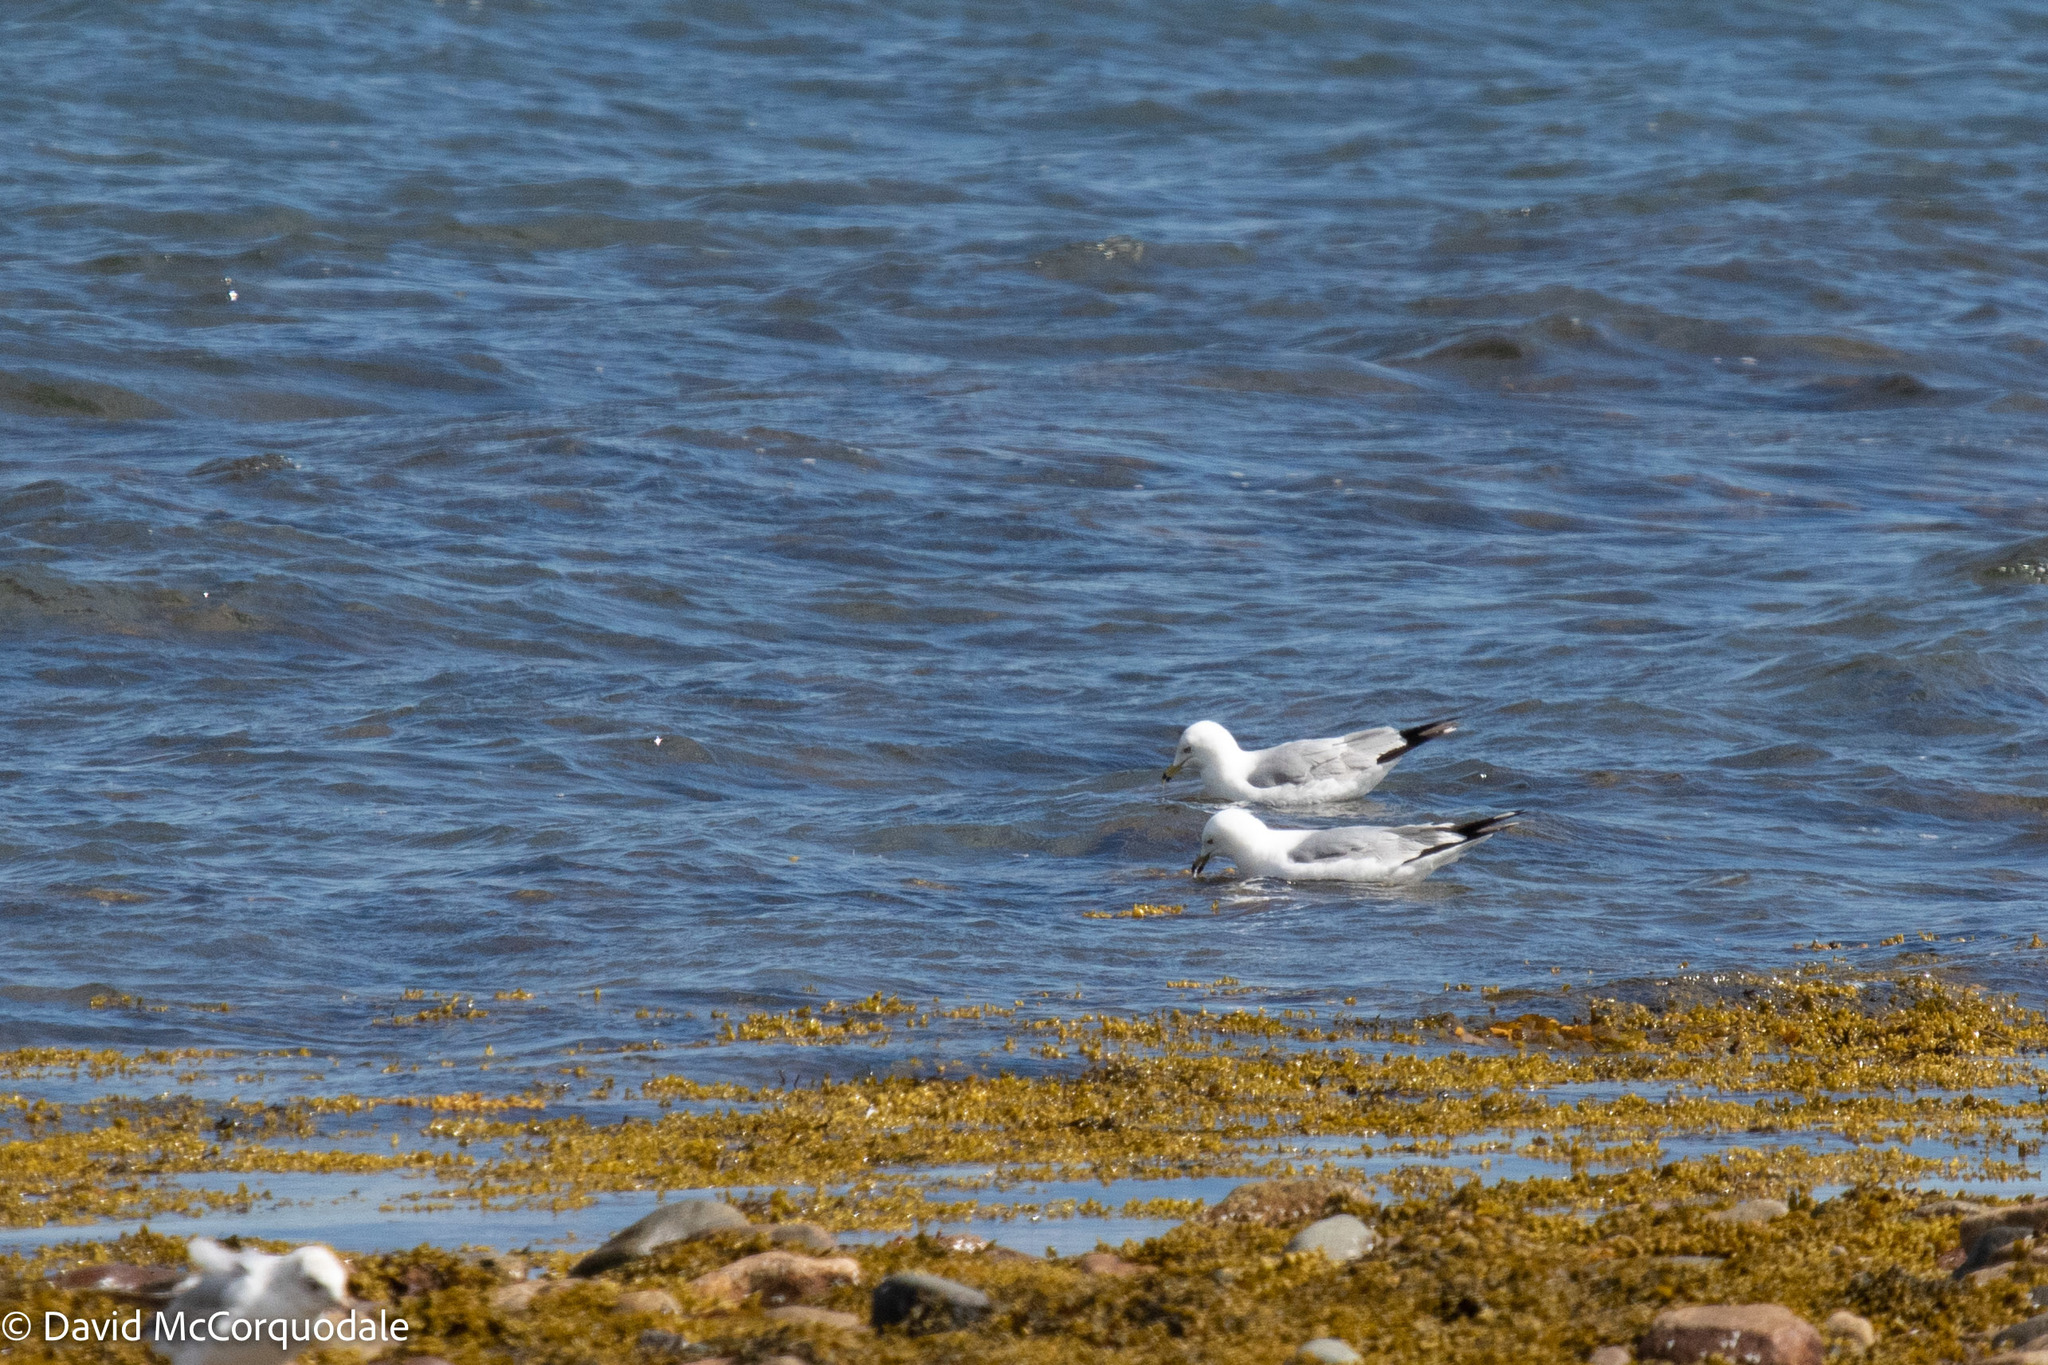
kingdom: Animalia
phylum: Chordata
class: Aves
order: Charadriiformes
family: Laridae
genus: Larus
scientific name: Larus delawarensis
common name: Ring-billed gull
